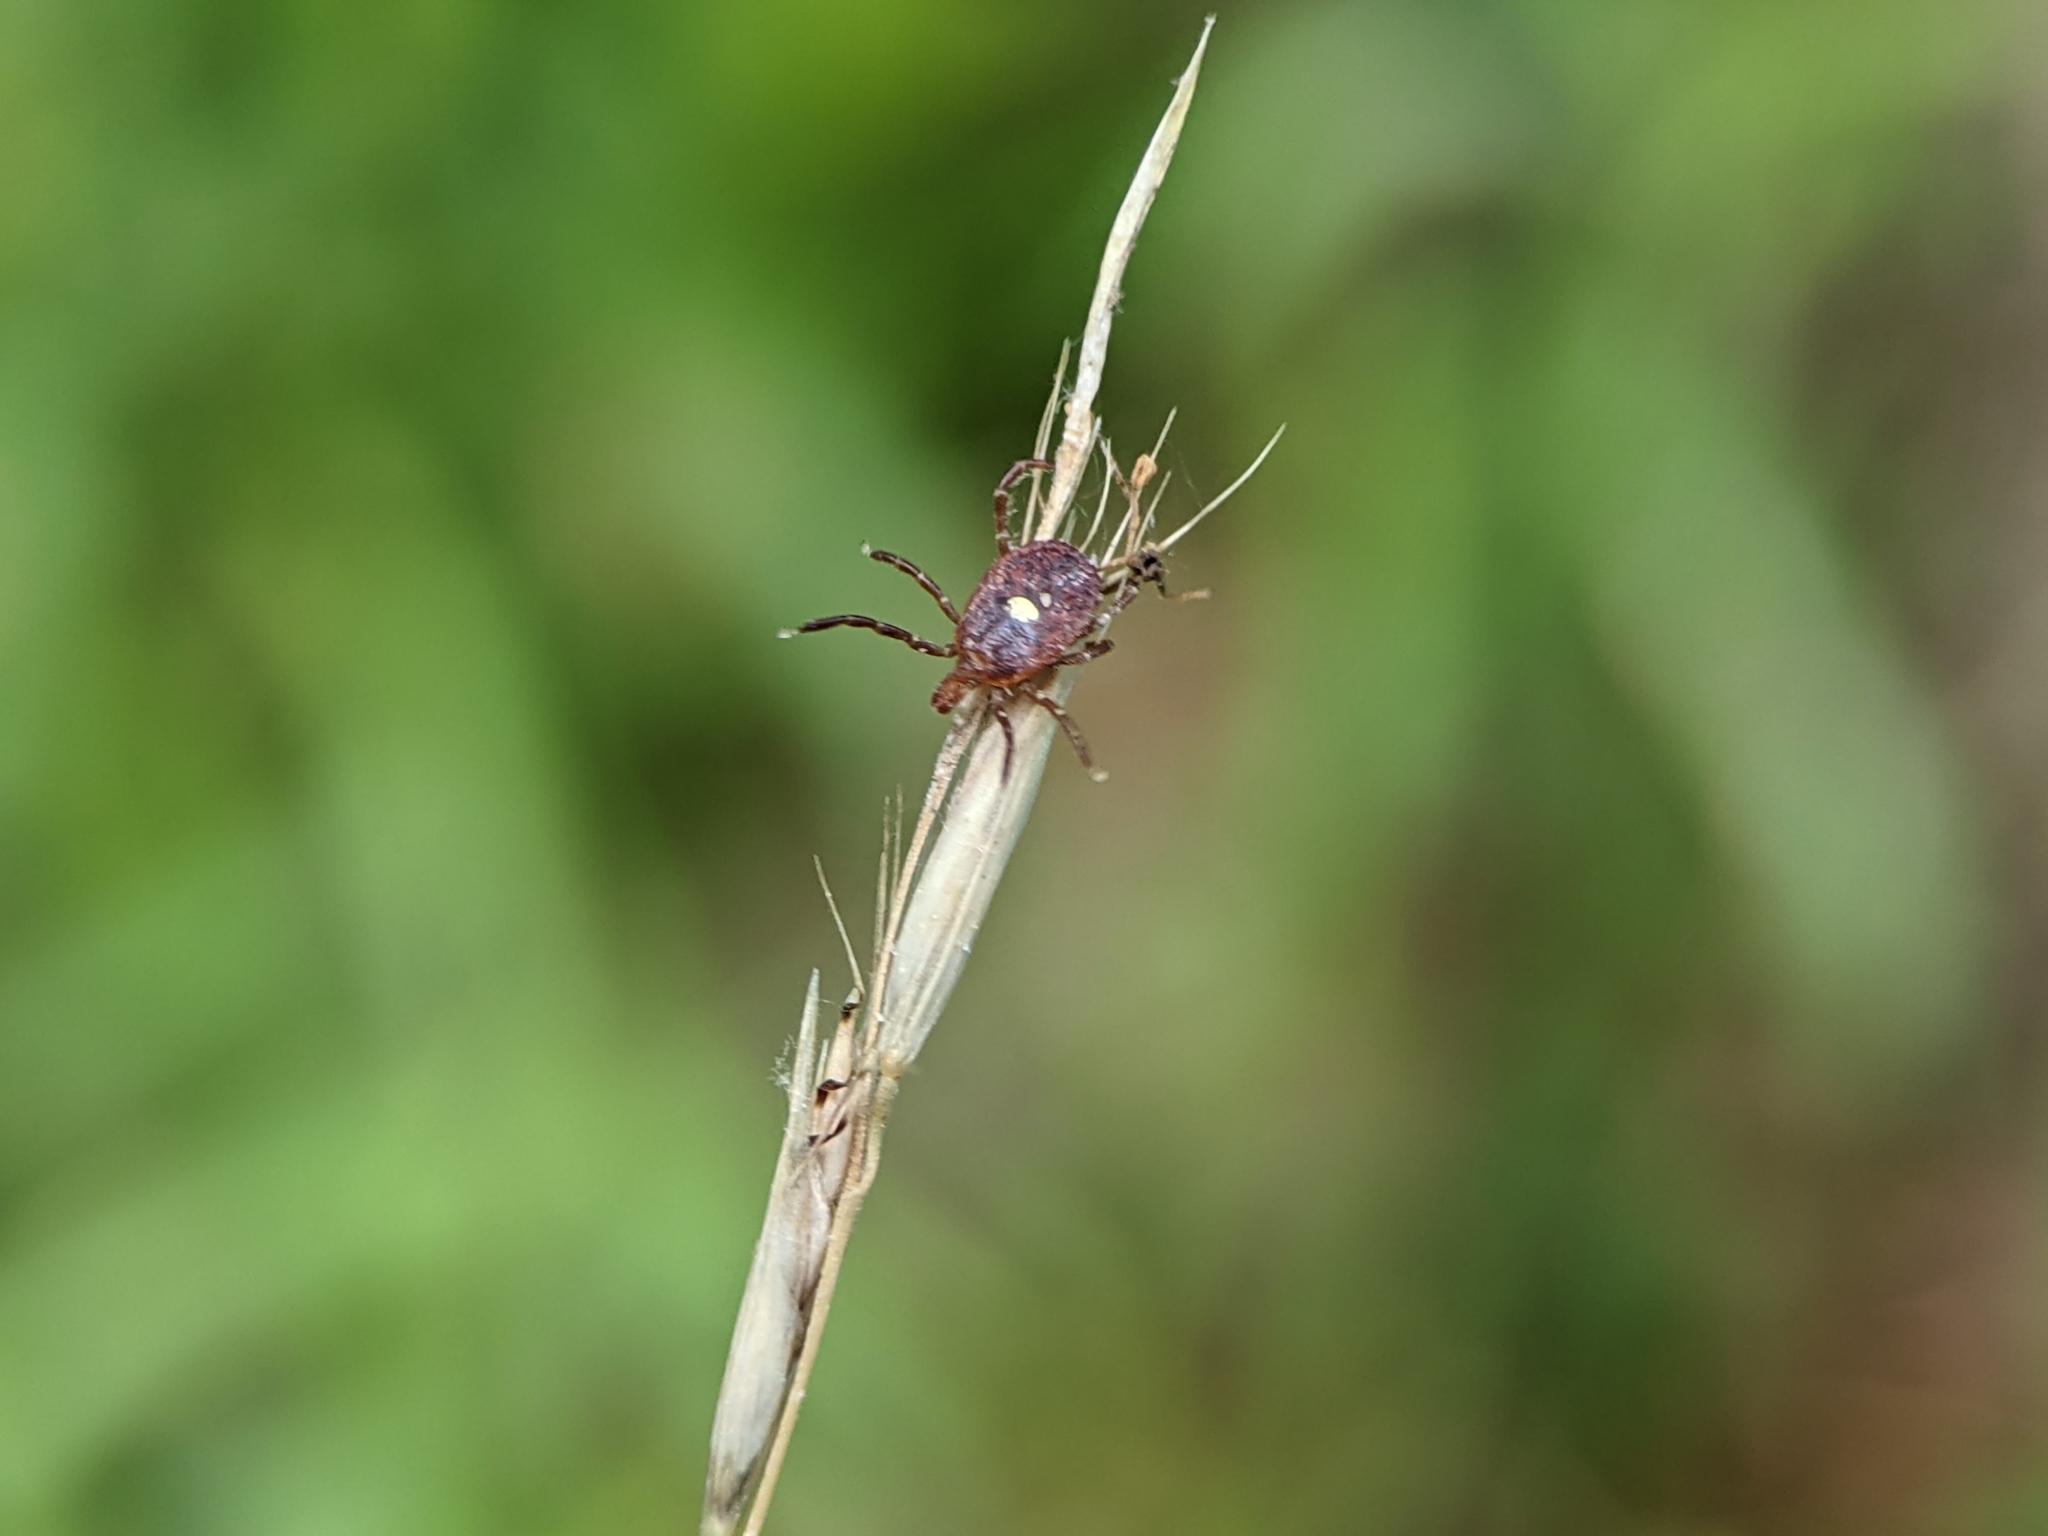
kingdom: Animalia
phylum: Arthropoda
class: Arachnida
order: Ixodida
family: Ixodidae
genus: Amblyomma
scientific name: Amblyomma americanum
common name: Lone star tick
